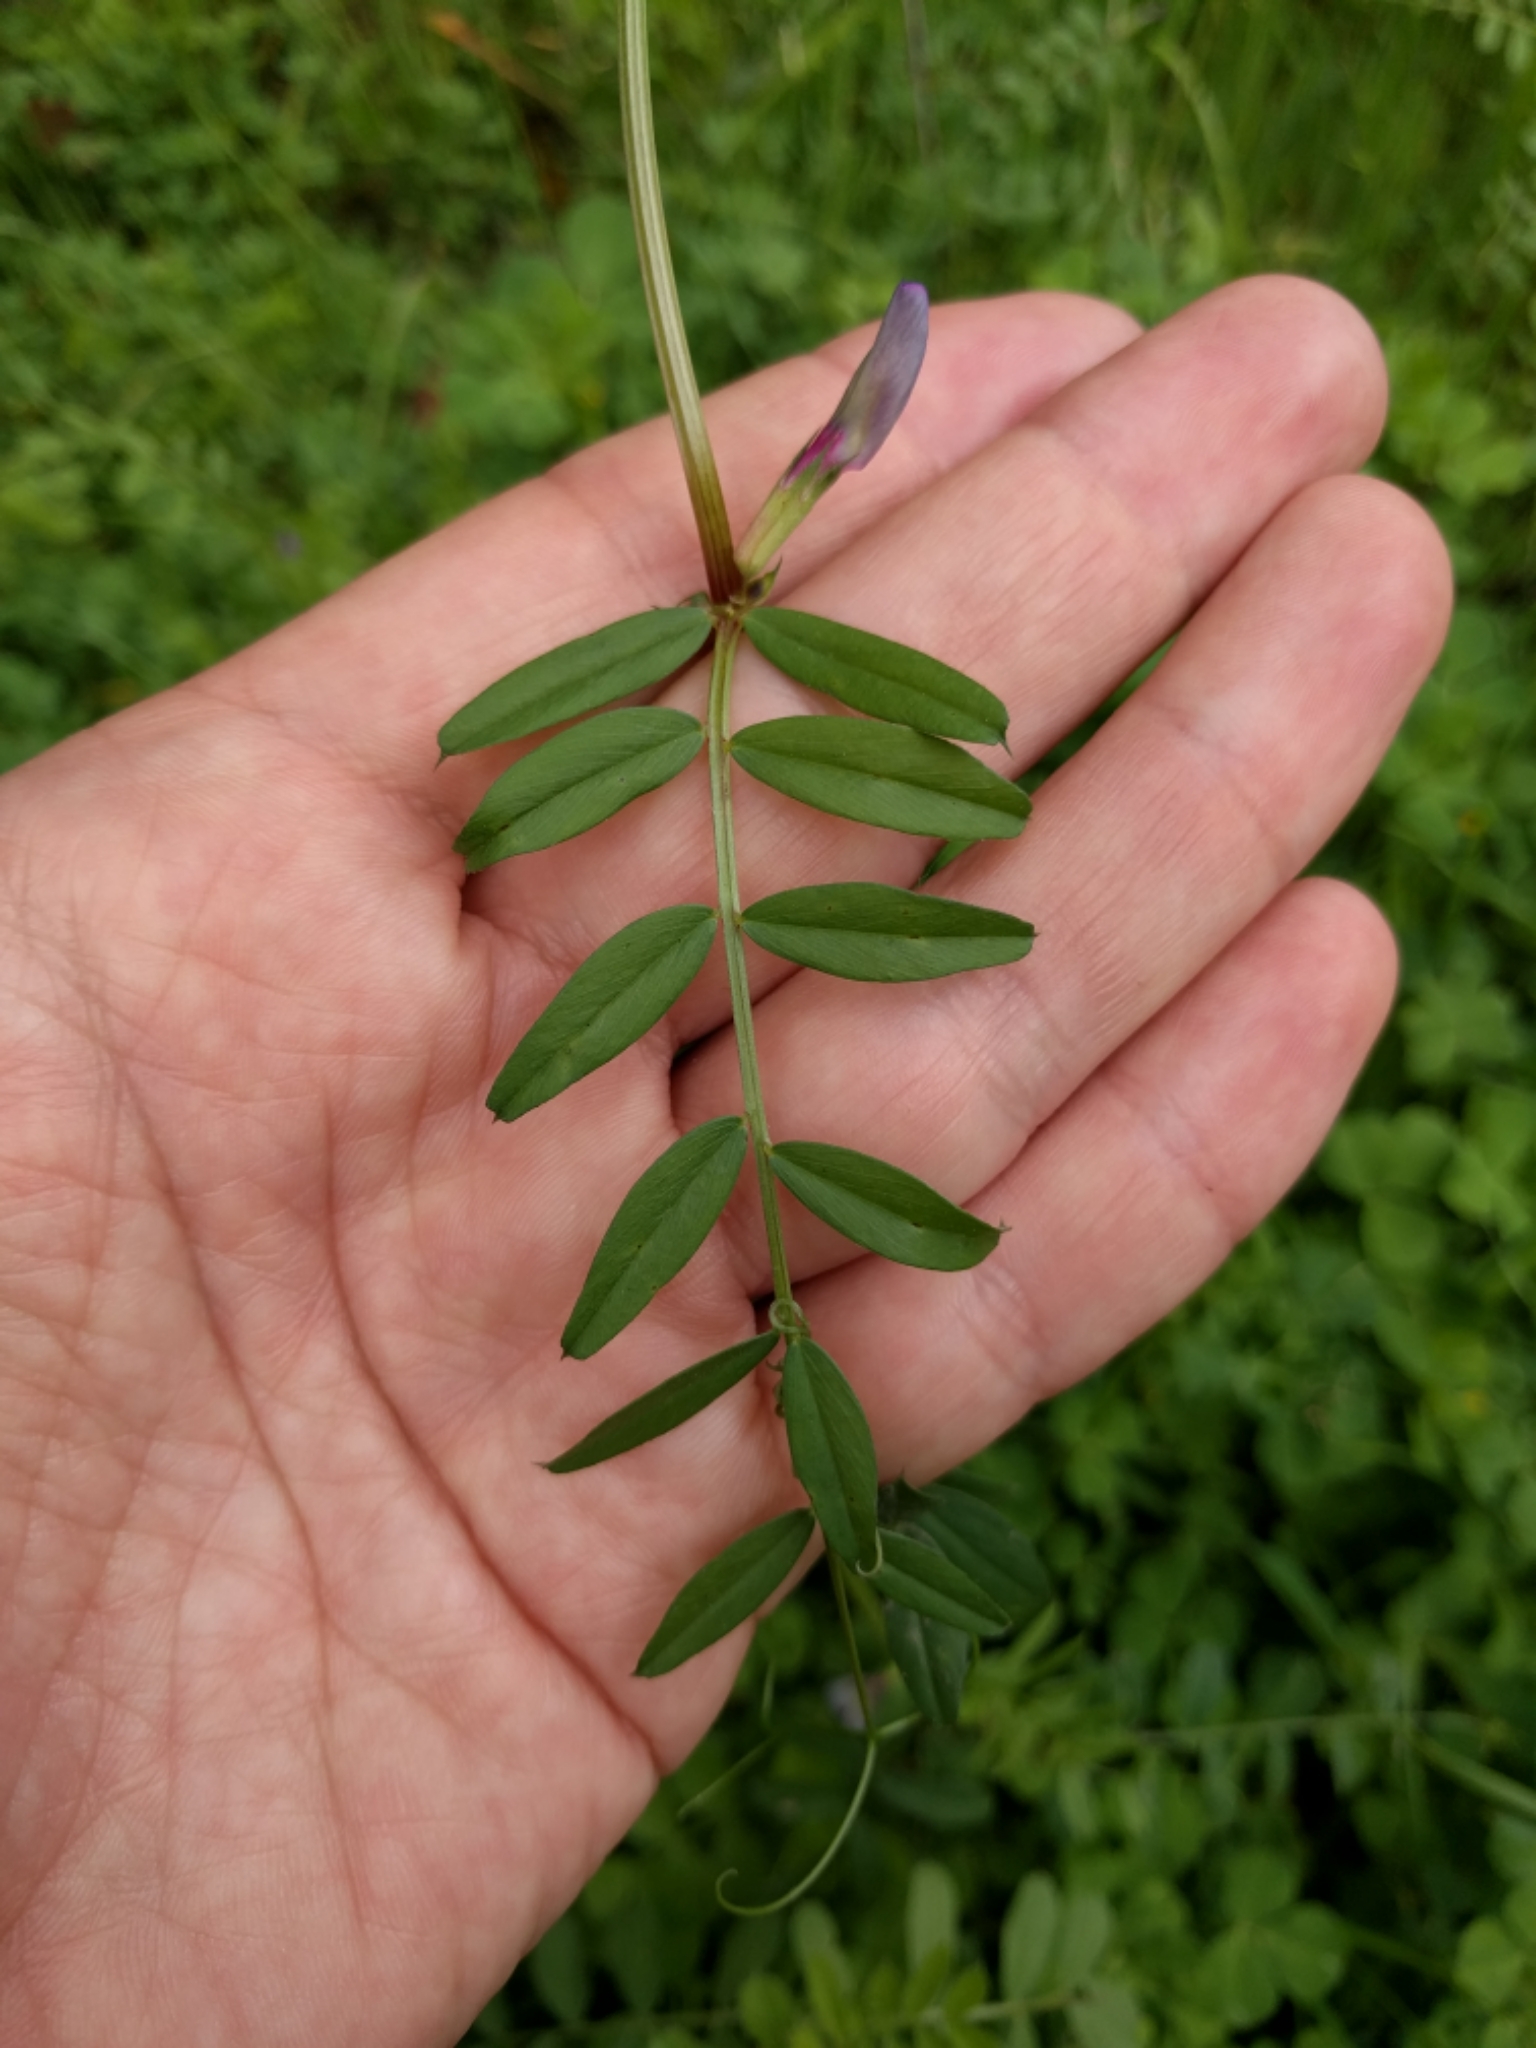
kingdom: Plantae
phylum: Tracheophyta
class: Magnoliopsida
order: Fabales
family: Fabaceae
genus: Vicia
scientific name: Vicia sativa
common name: Garden vetch
